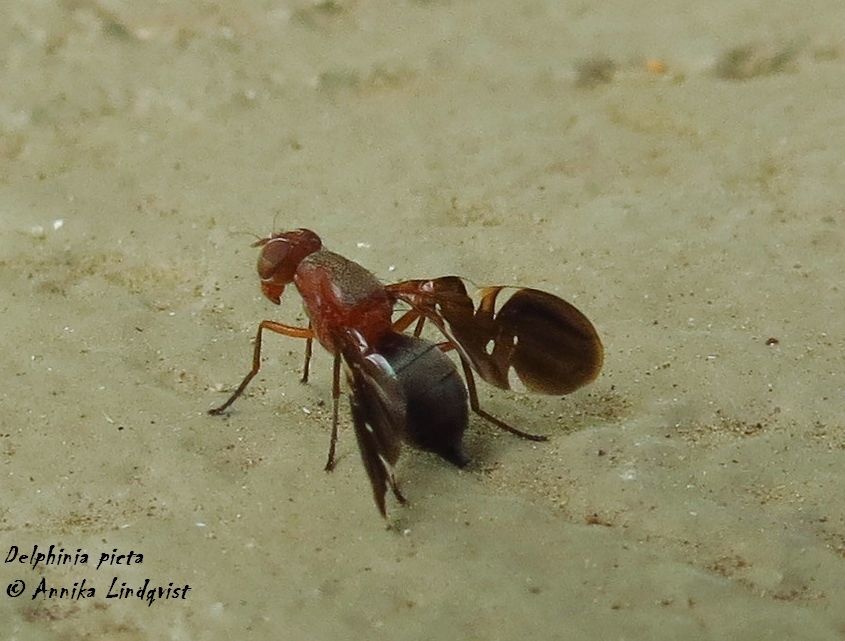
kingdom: Animalia
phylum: Arthropoda
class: Insecta
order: Diptera
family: Ulidiidae
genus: Delphinia
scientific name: Delphinia picta
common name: Common picture-winged fly
